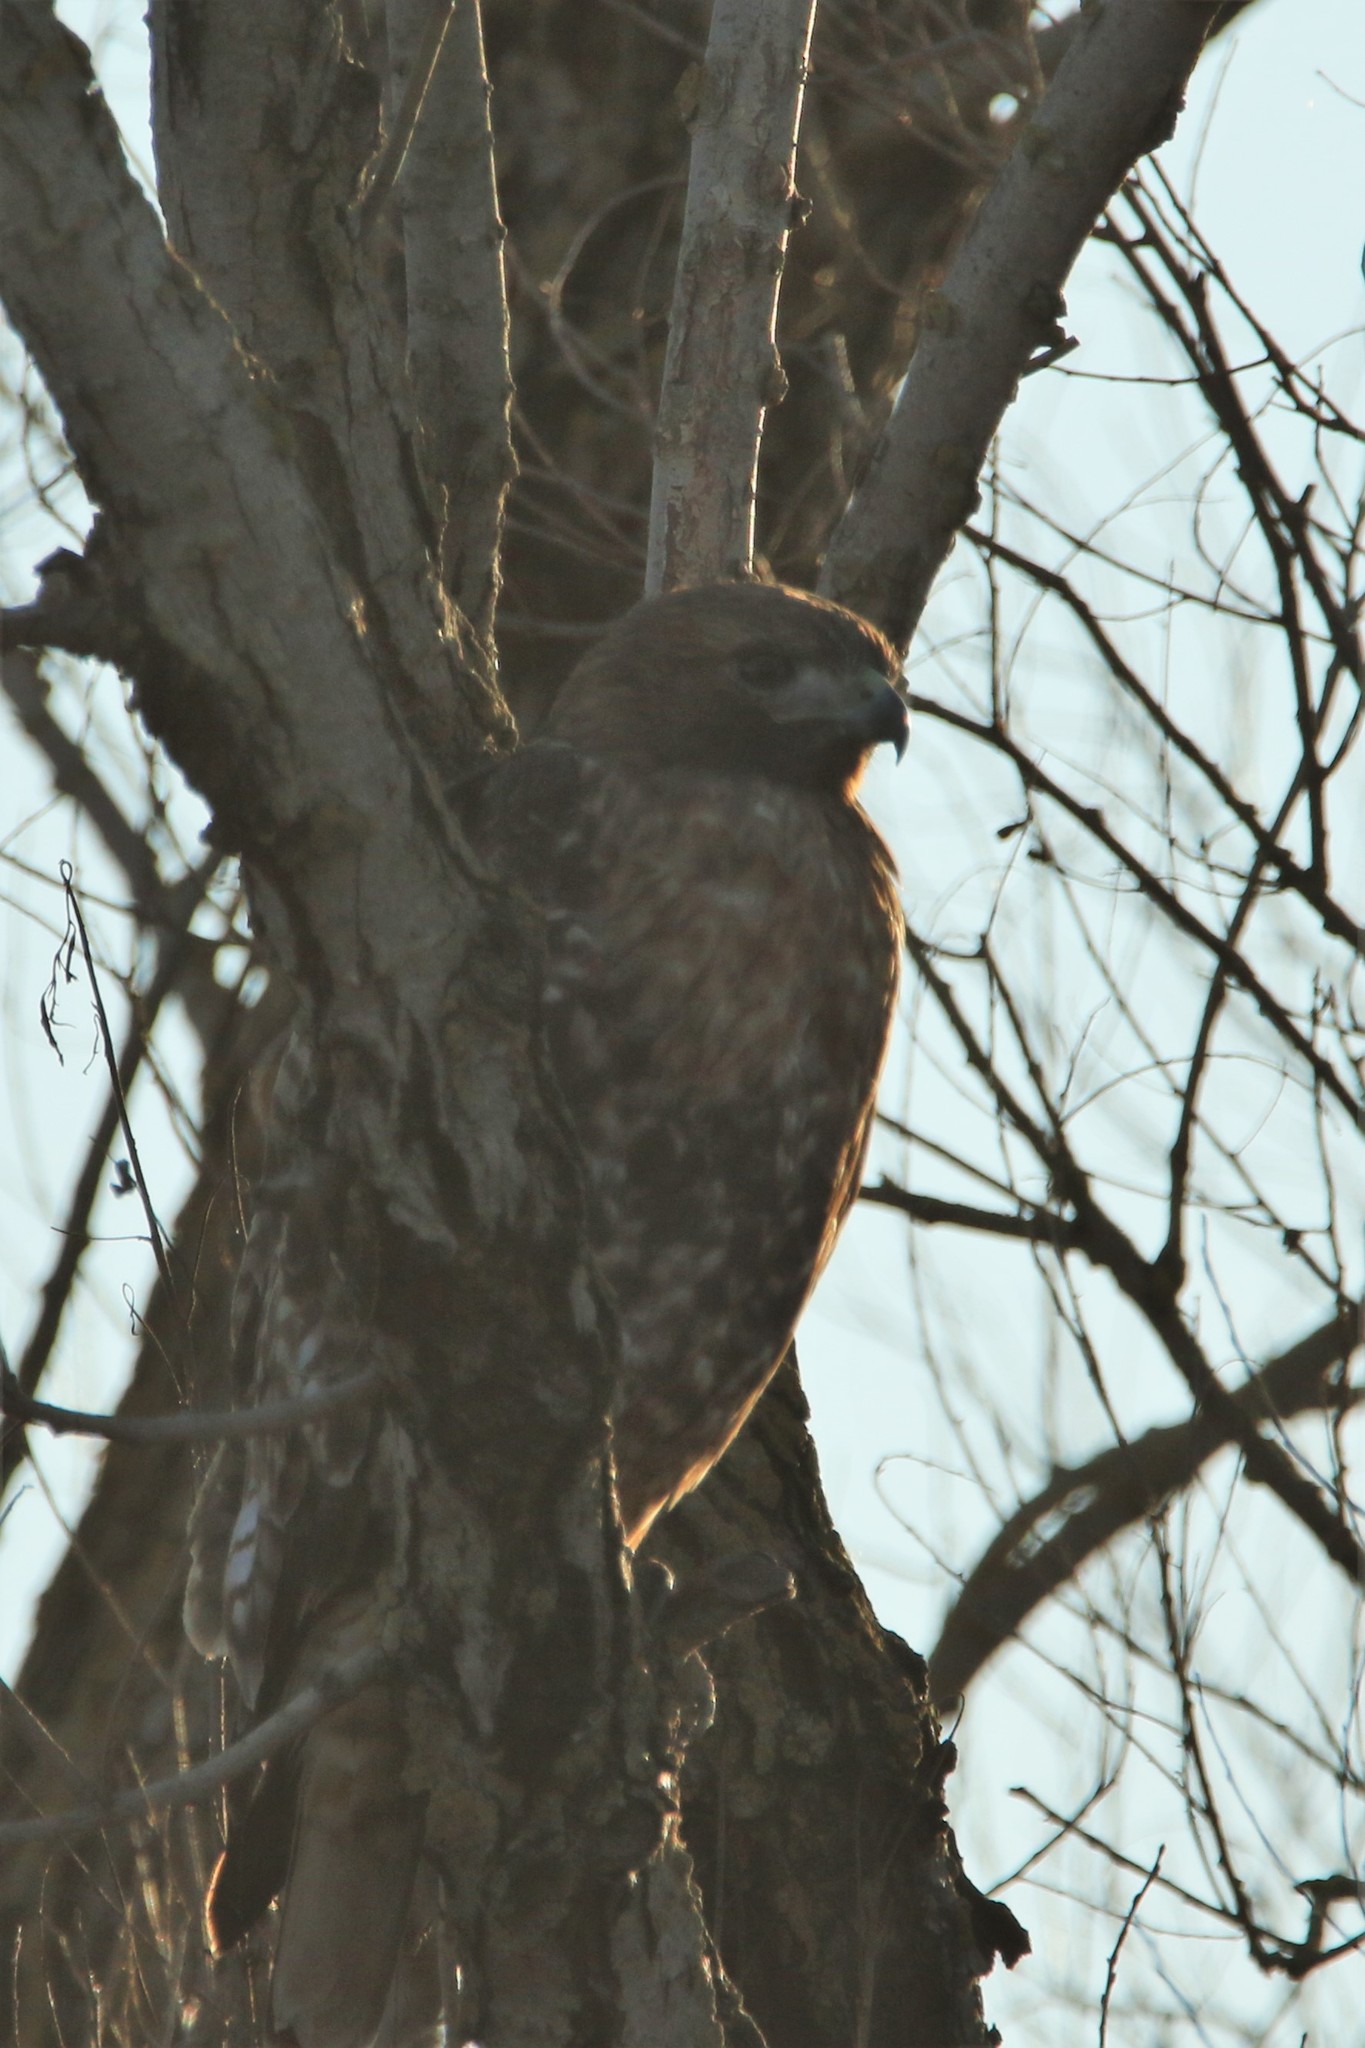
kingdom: Animalia
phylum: Chordata
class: Aves
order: Accipitriformes
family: Accipitridae
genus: Buteo
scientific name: Buteo jamaicensis
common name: Red-tailed hawk
